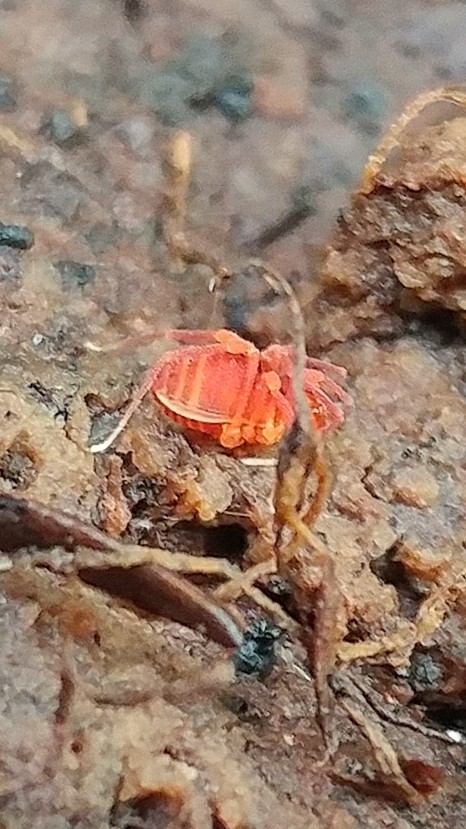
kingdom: Animalia
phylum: Arthropoda
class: Arachnida
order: Opiliones
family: Phalangodidae
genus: Sitalcina
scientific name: Sitalcina sura
